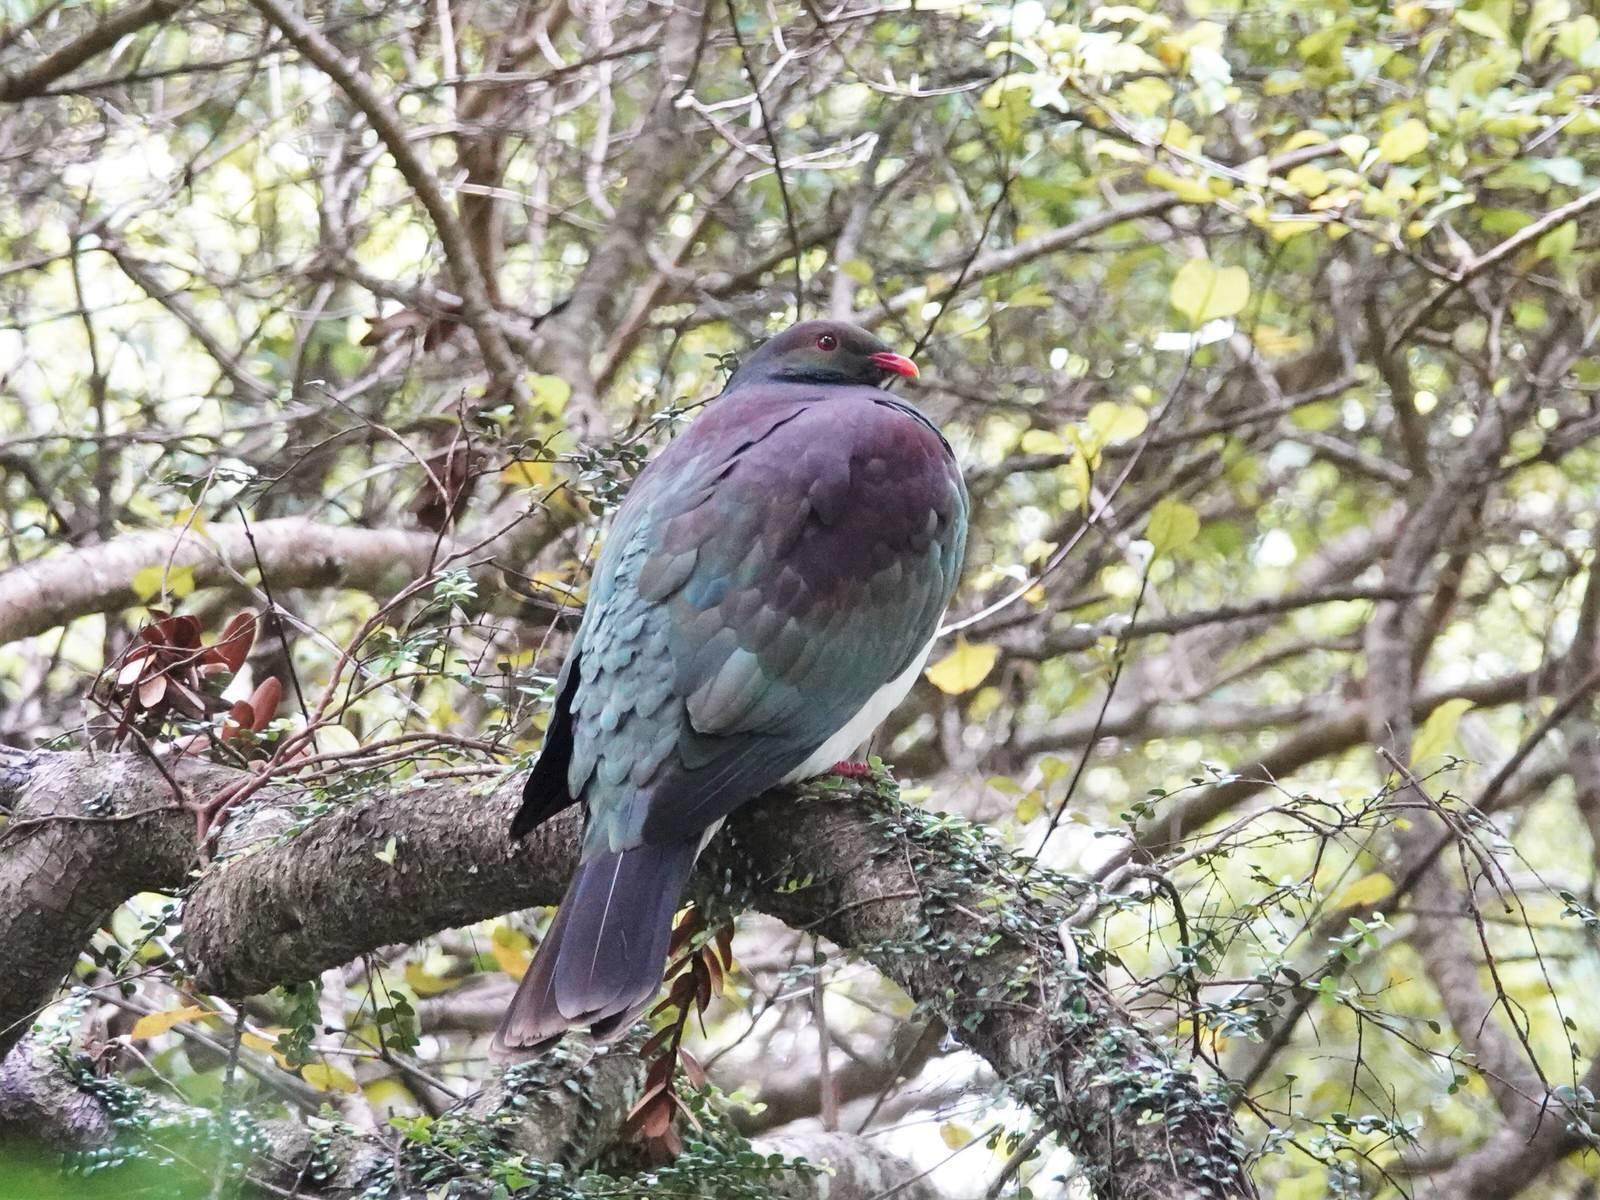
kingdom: Animalia
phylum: Chordata
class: Aves
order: Columbiformes
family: Columbidae
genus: Hemiphaga
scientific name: Hemiphaga novaeseelandiae
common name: New zealand pigeon
